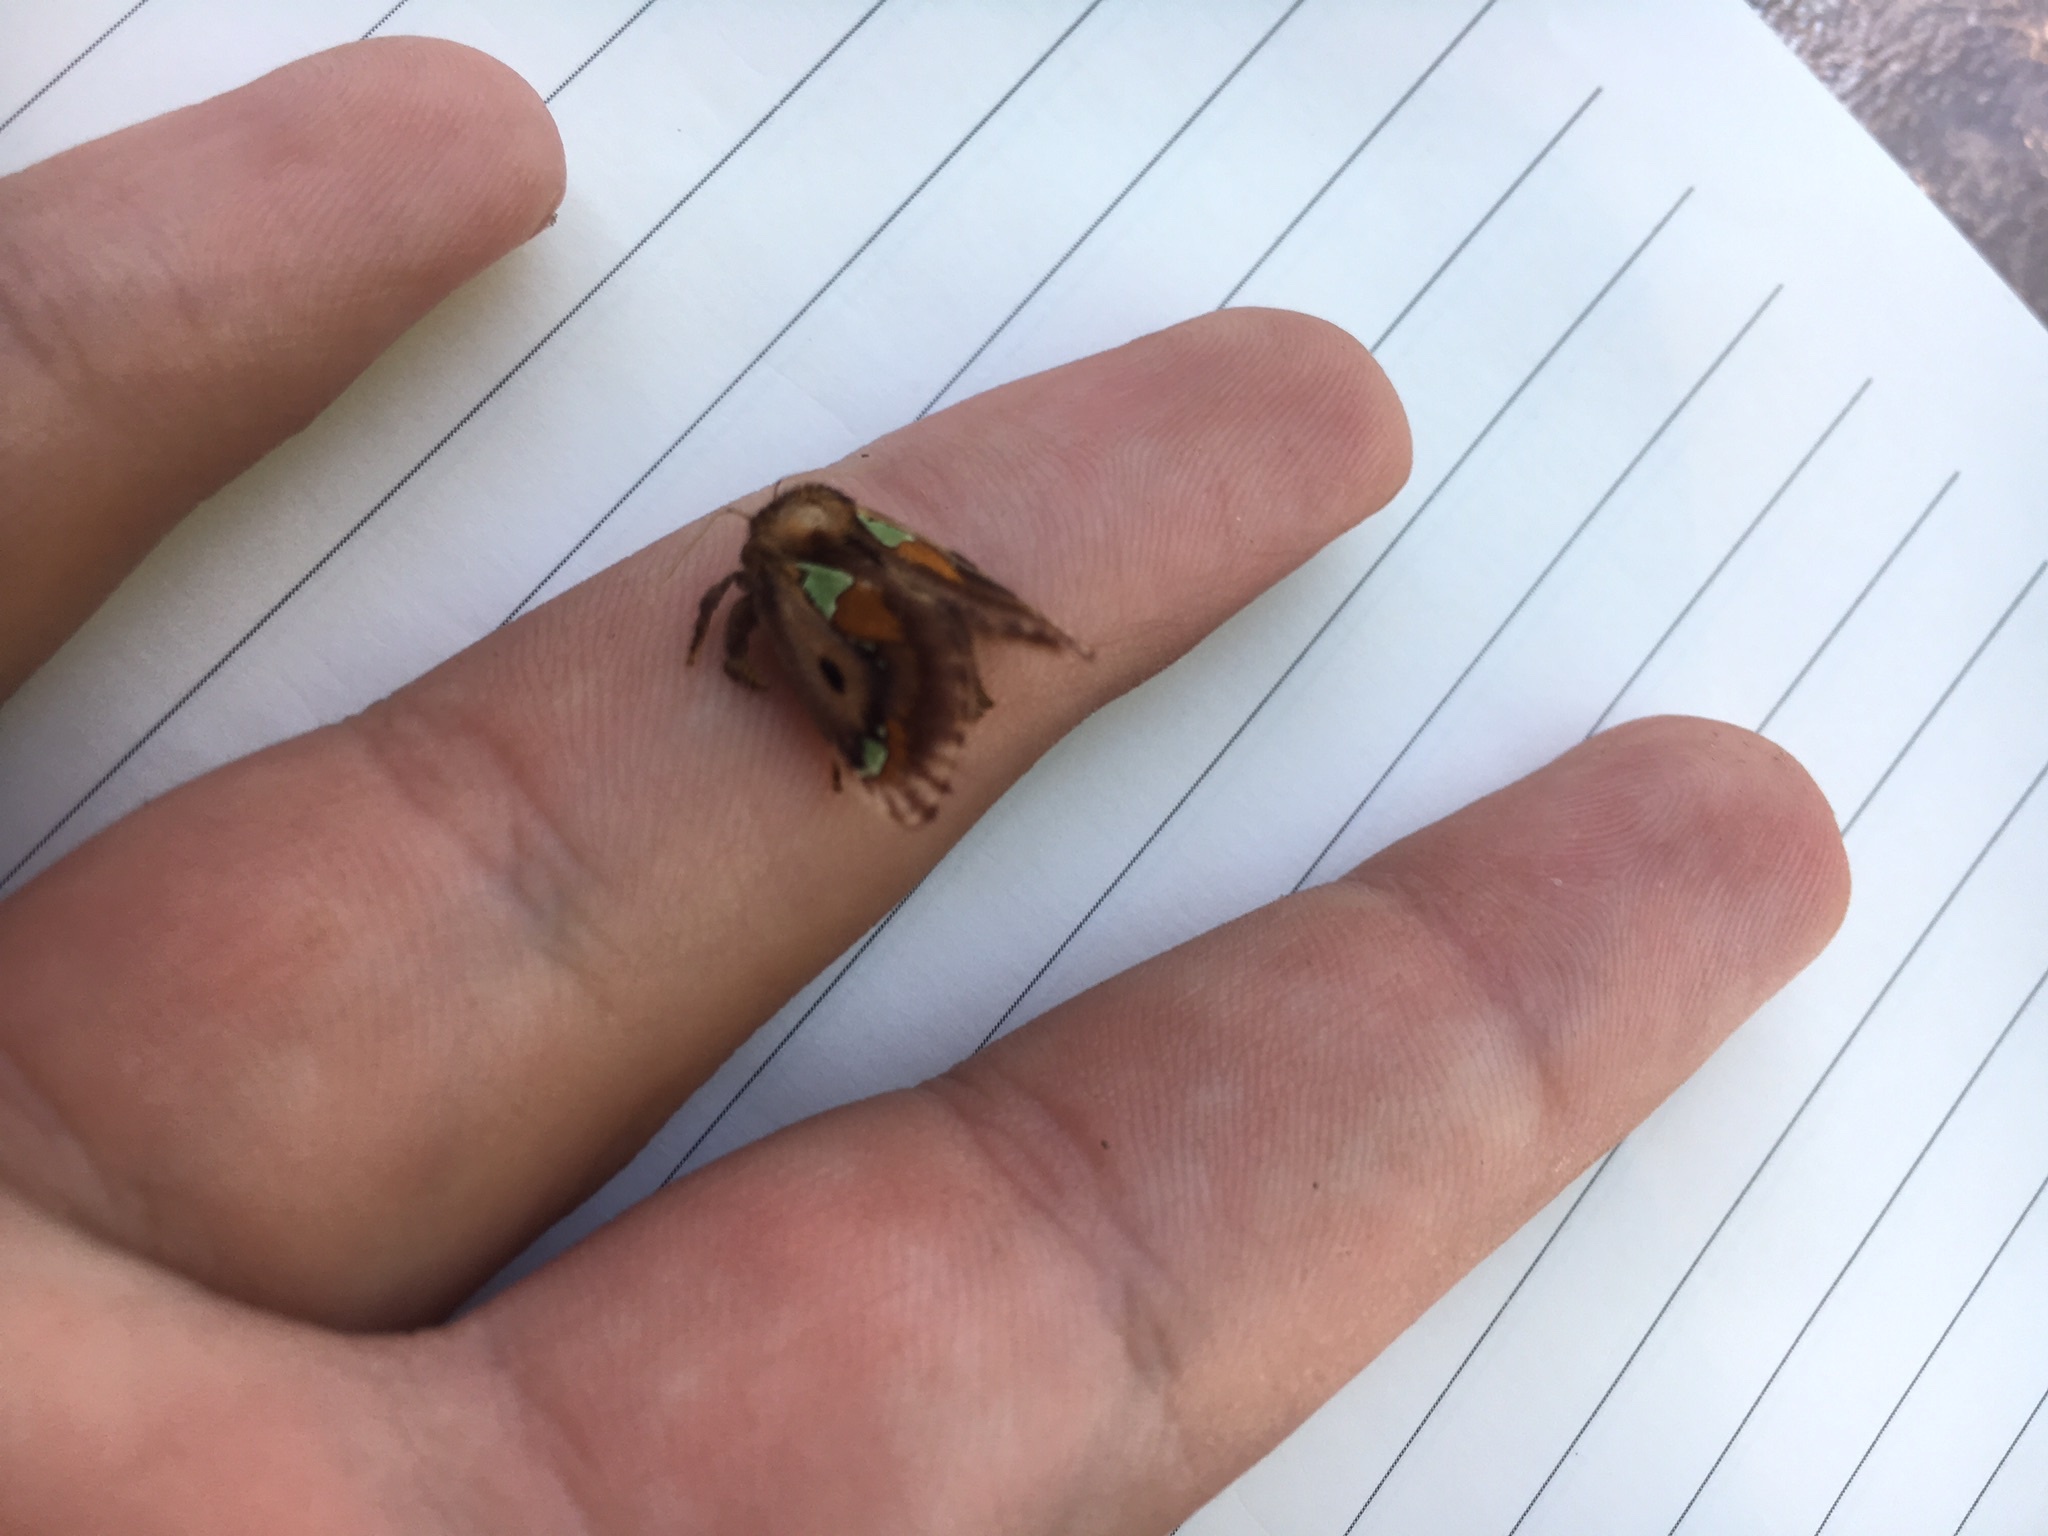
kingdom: Animalia
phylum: Arthropoda
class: Insecta
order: Lepidoptera
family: Limacodidae
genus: Euclea
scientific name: Euclea delphinii
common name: Spiny oak-slug moth
